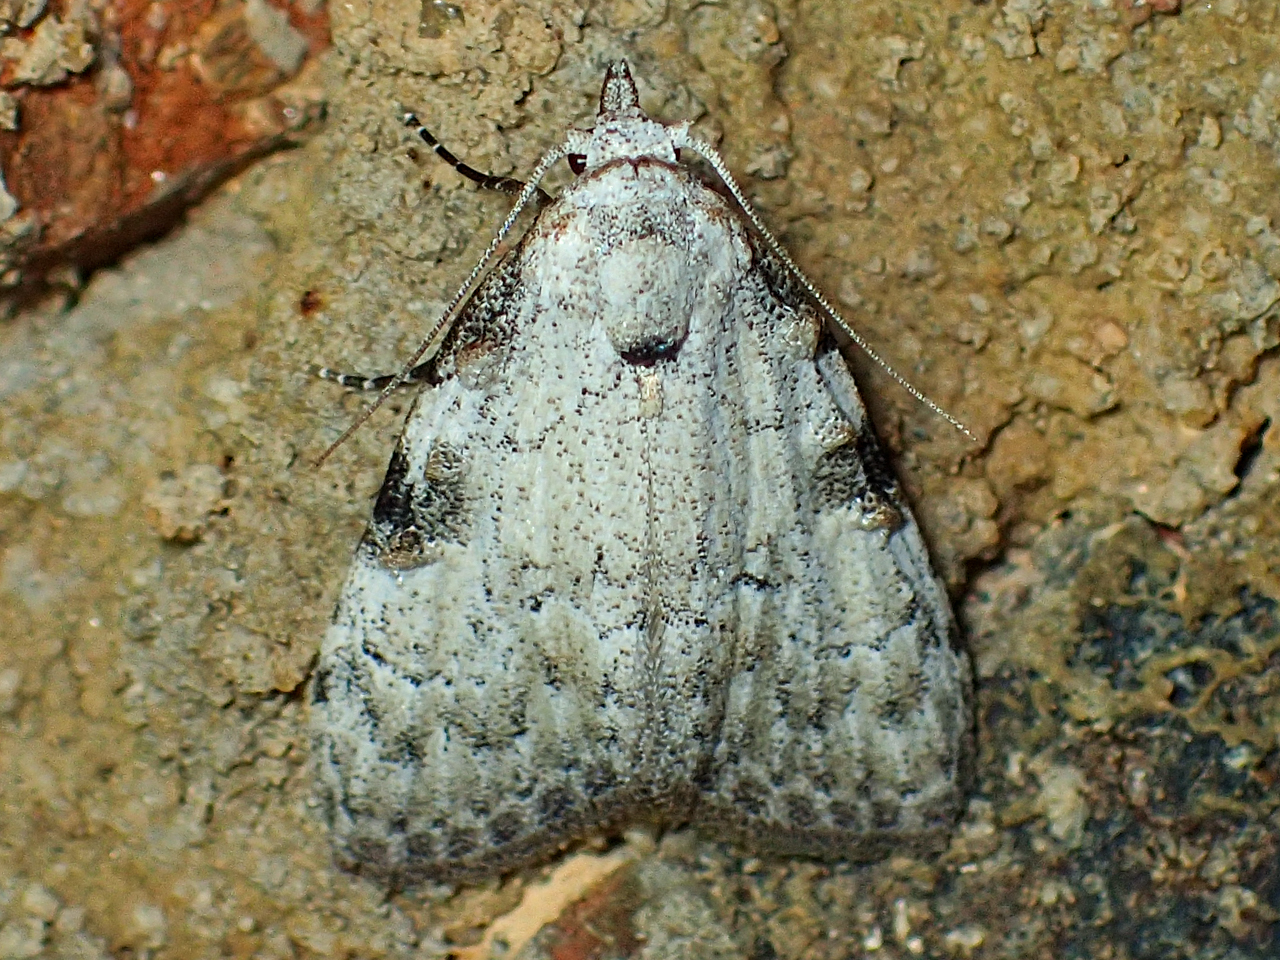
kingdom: Animalia
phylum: Arthropoda
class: Insecta
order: Lepidoptera
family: Nolidae
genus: Meganola
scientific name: Meganola minuscula
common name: Confused meganola moth
